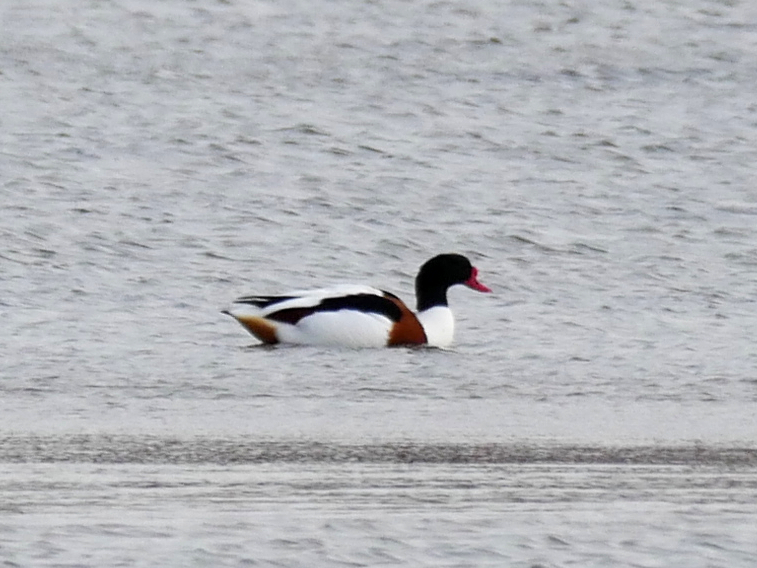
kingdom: Animalia
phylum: Chordata
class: Aves
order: Anseriformes
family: Anatidae
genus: Tadorna
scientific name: Tadorna tadorna
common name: Common shelduck
